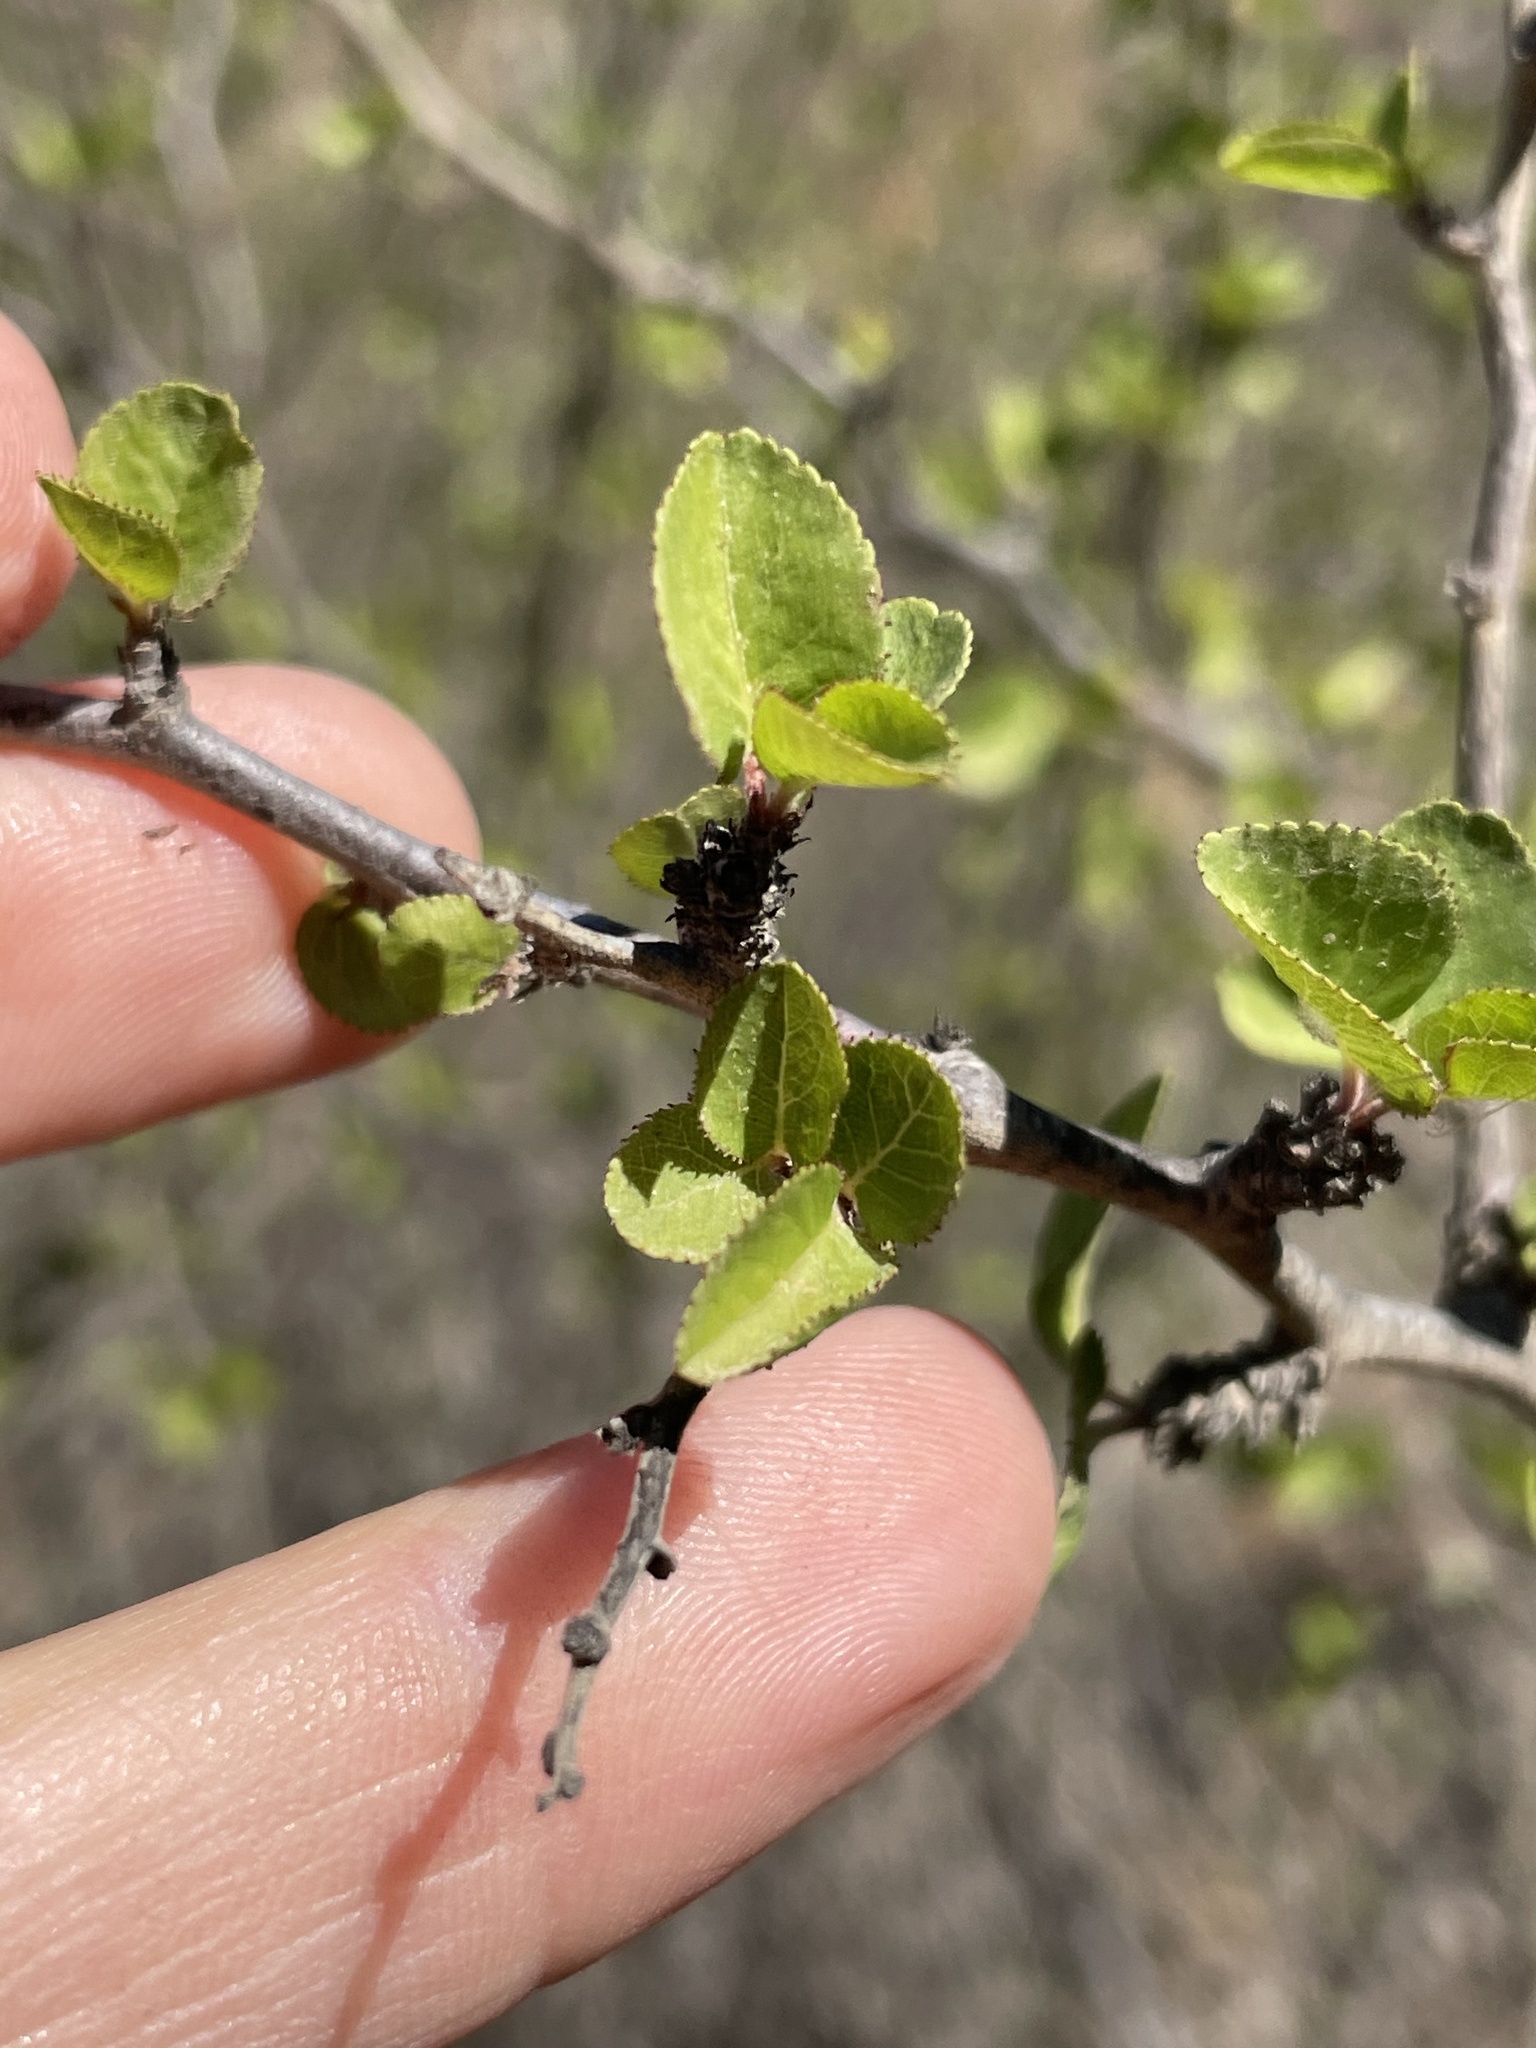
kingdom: Plantae
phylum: Tracheophyta
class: Magnoliopsida
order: Rosales
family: Rosaceae
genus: Prunus
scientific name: Prunus fremontii
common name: Desert apricot
